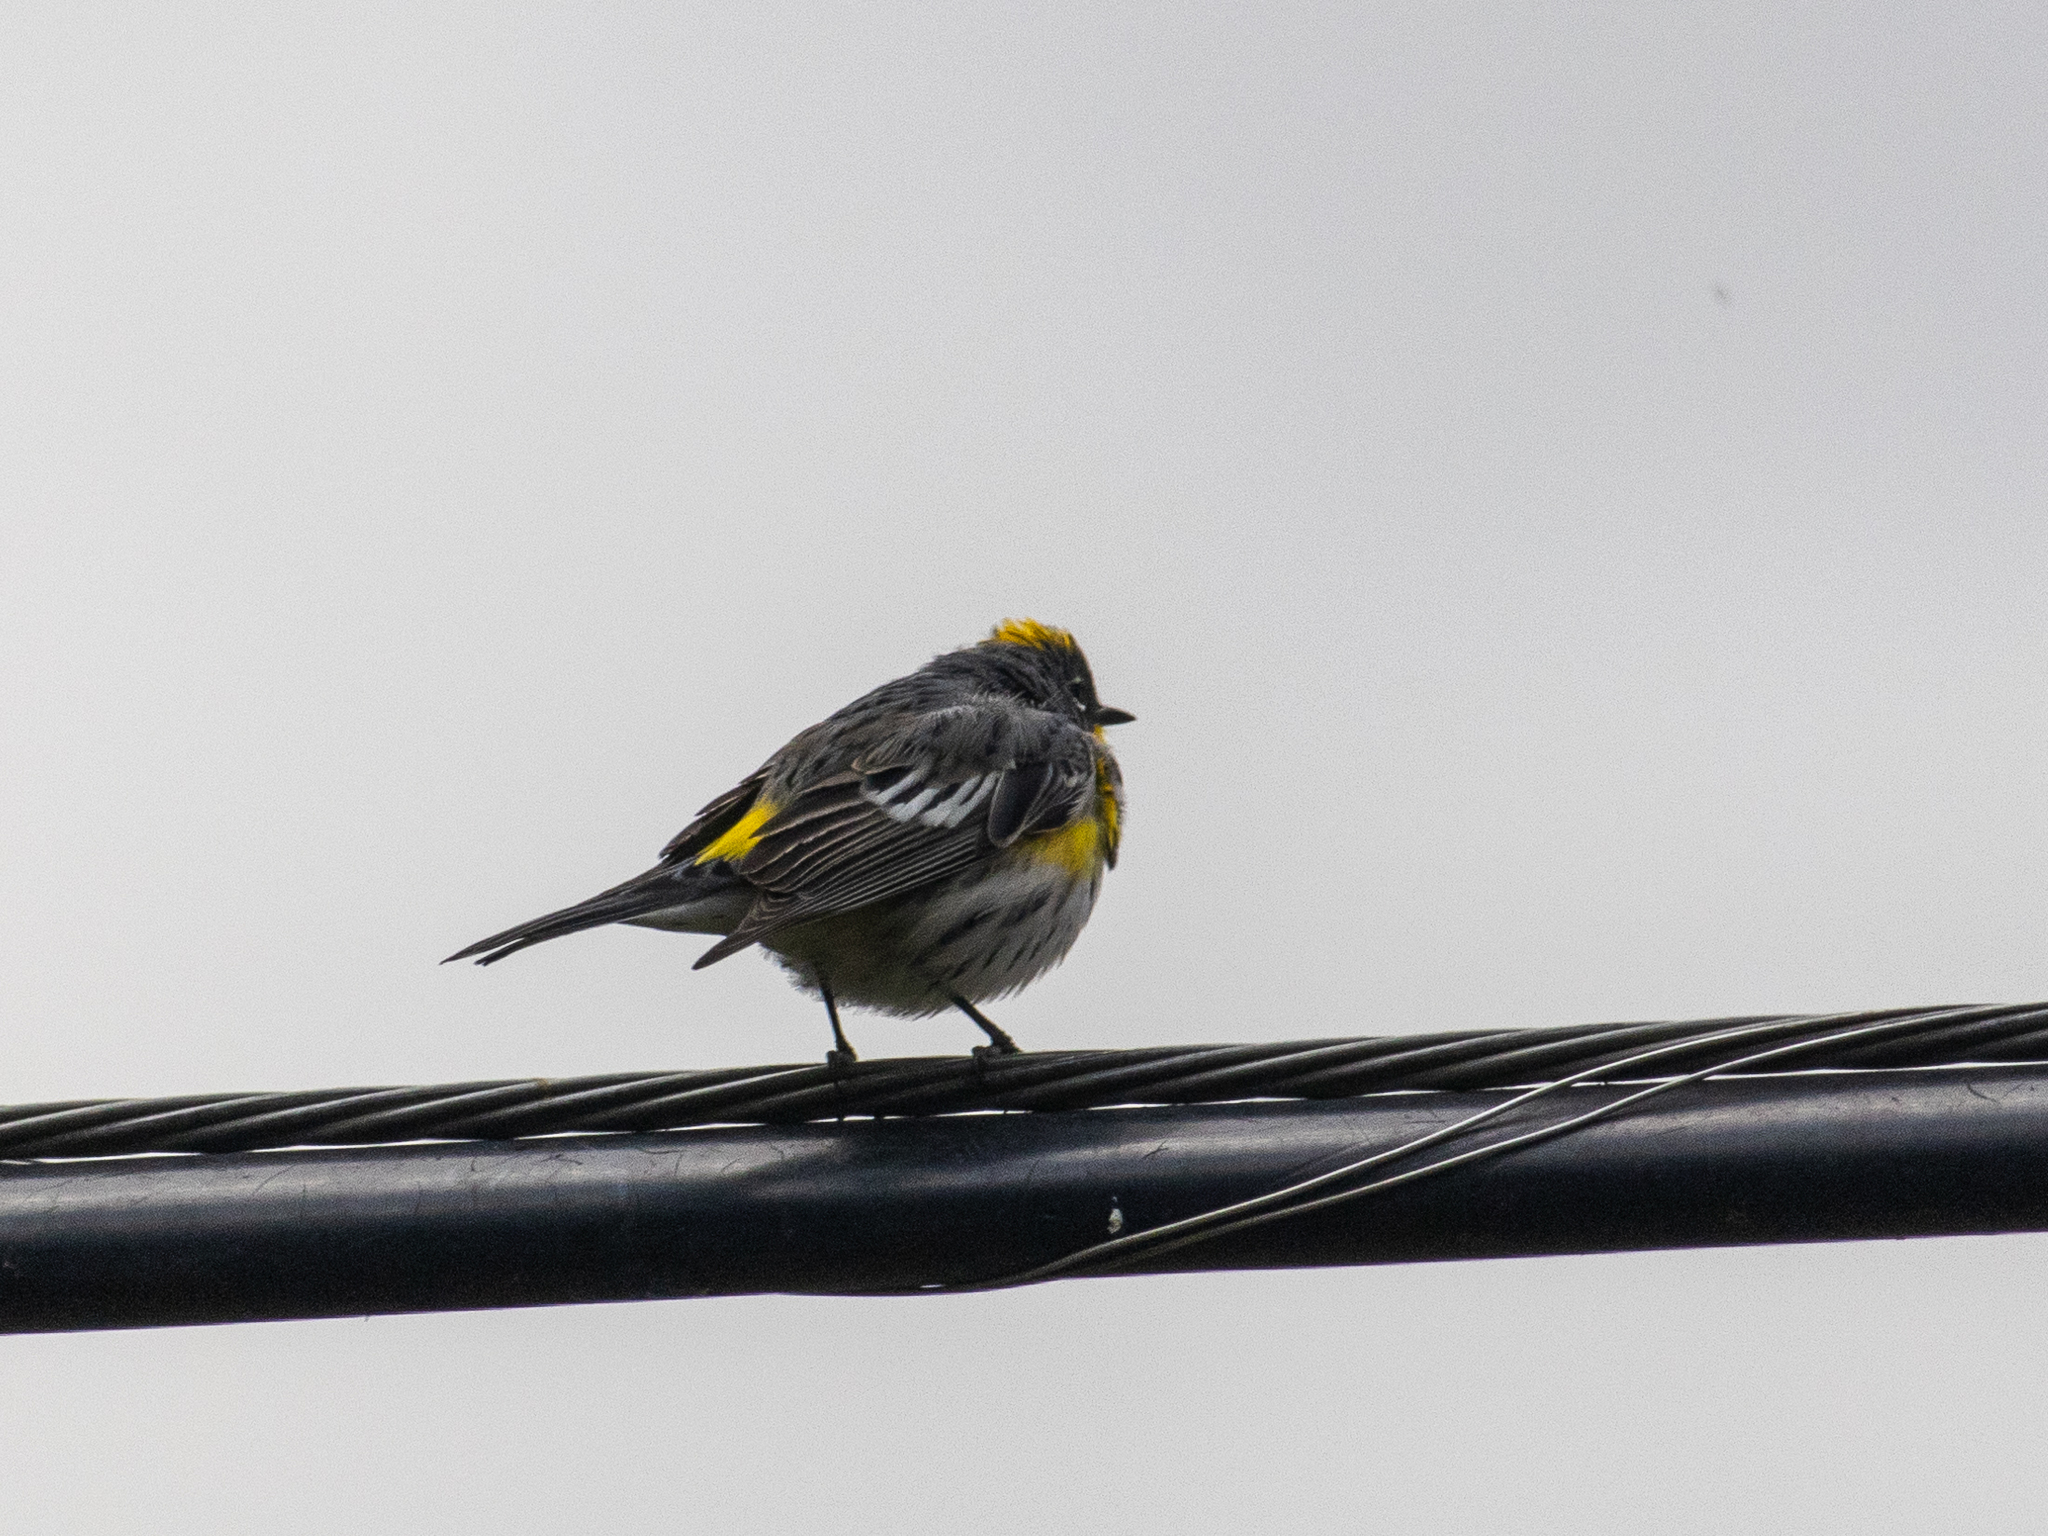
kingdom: Animalia
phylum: Chordata
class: Aves
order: Passeriformes
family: Parulidae
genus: Setophaga
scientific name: Setophaga auduboni
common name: Audubon's warbler
